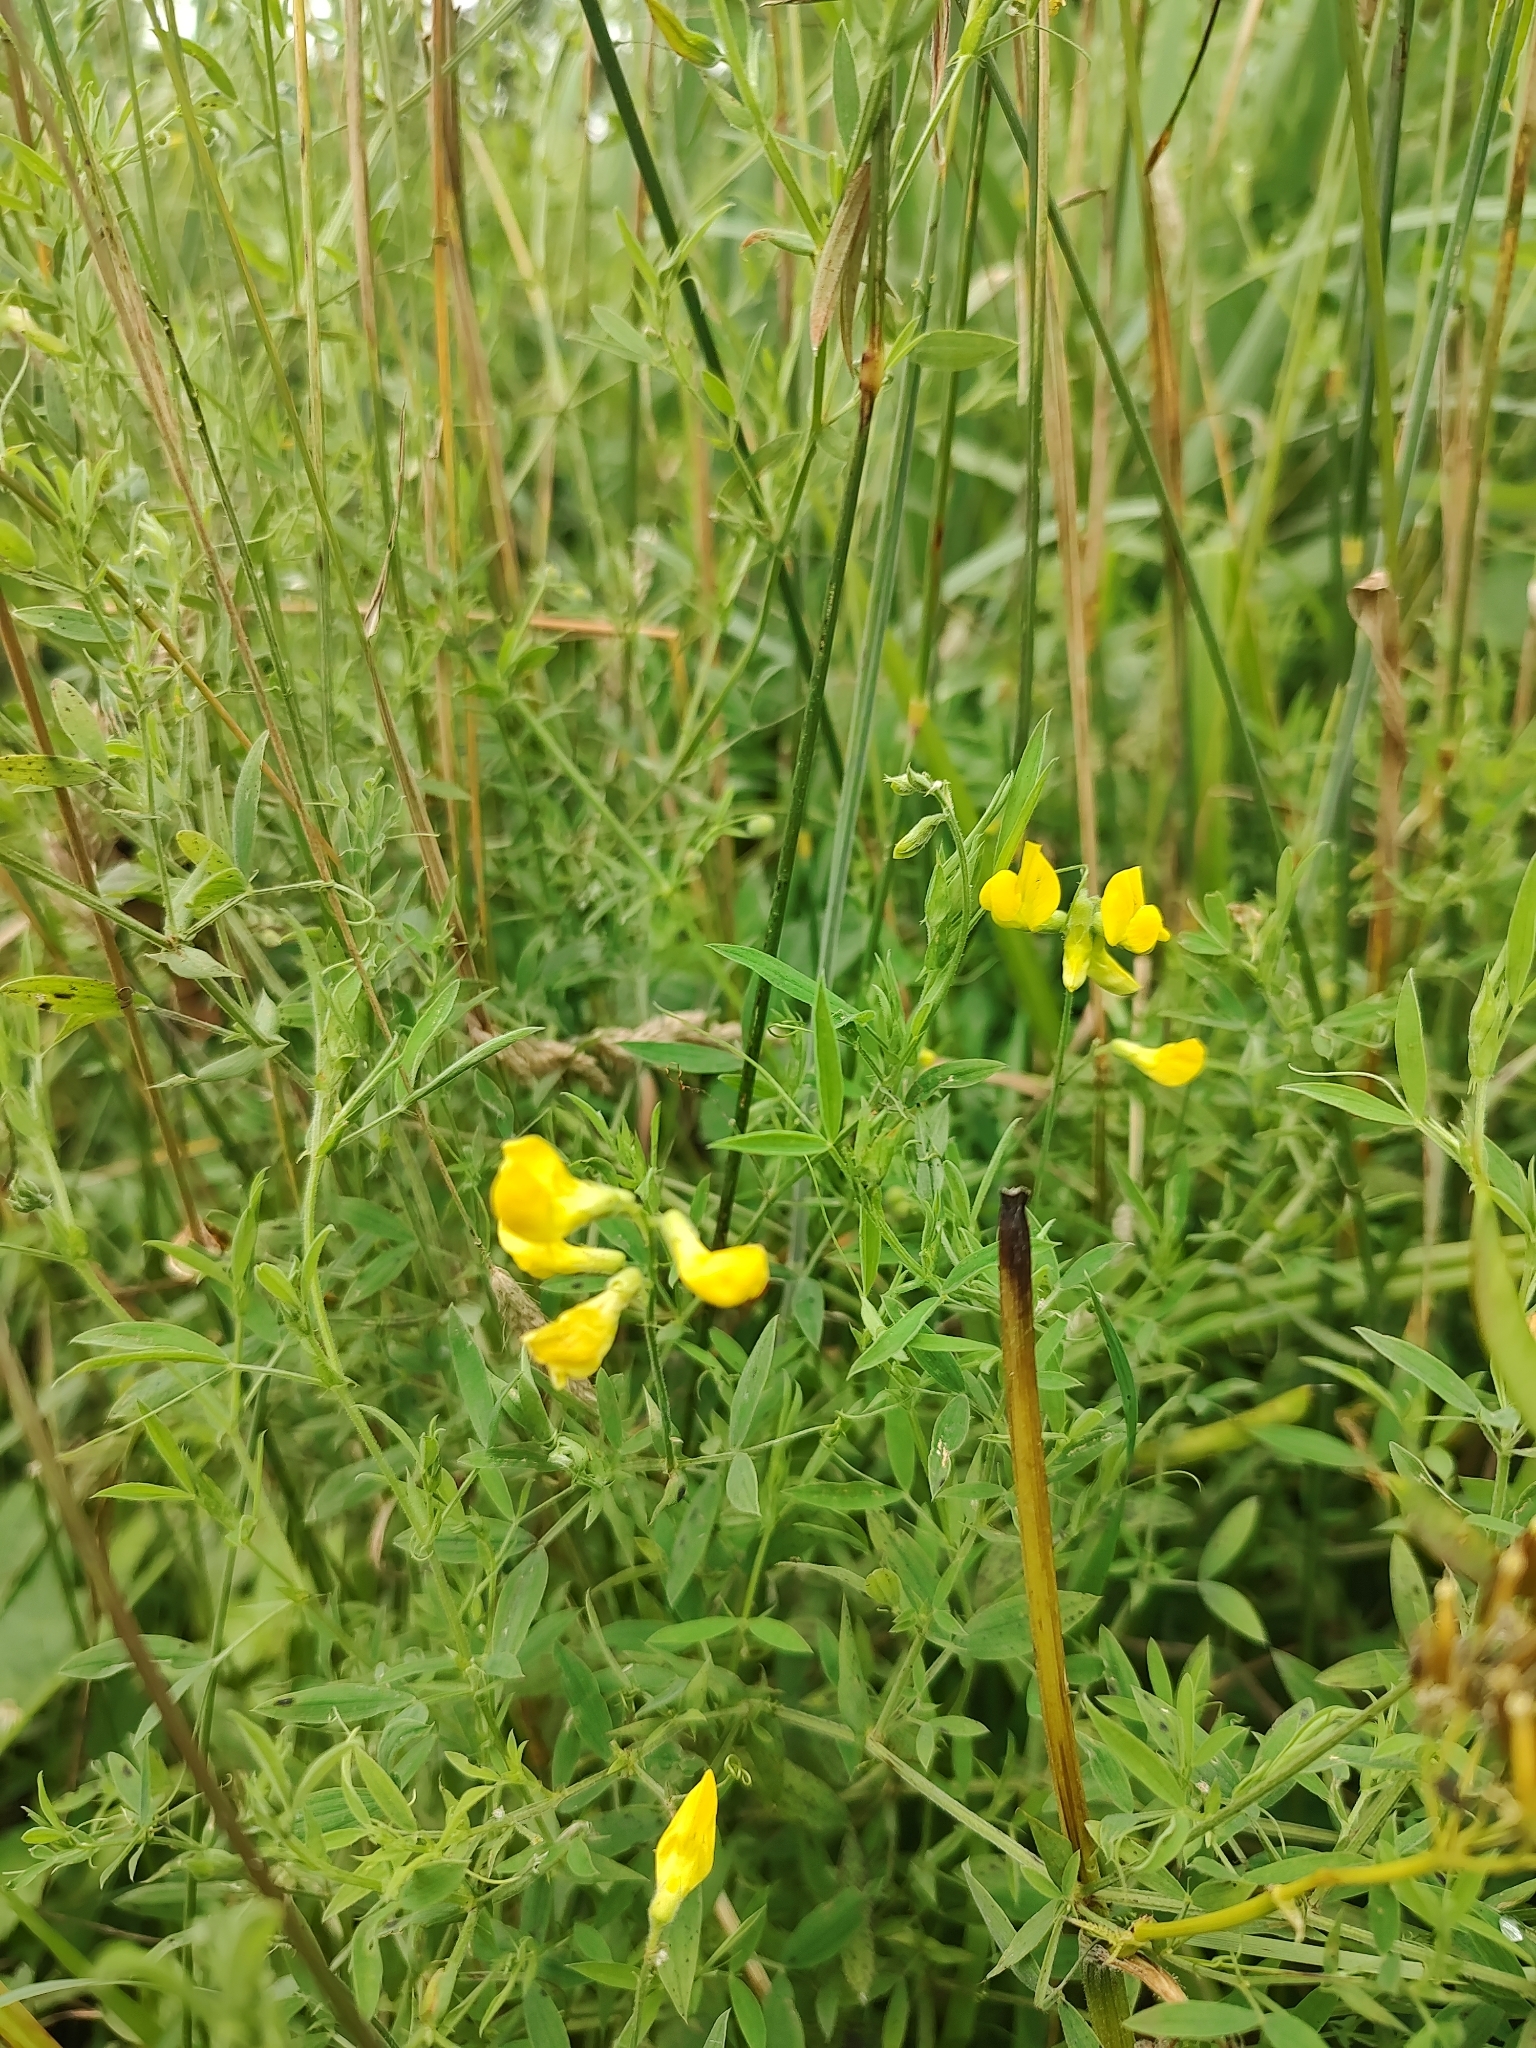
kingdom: Plantae
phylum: Tracheophyta
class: Magnoliopsida
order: Fabales
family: Fabaceae
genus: Lathyrus
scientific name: Lathyrus pratensis
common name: Meadow vetchling
